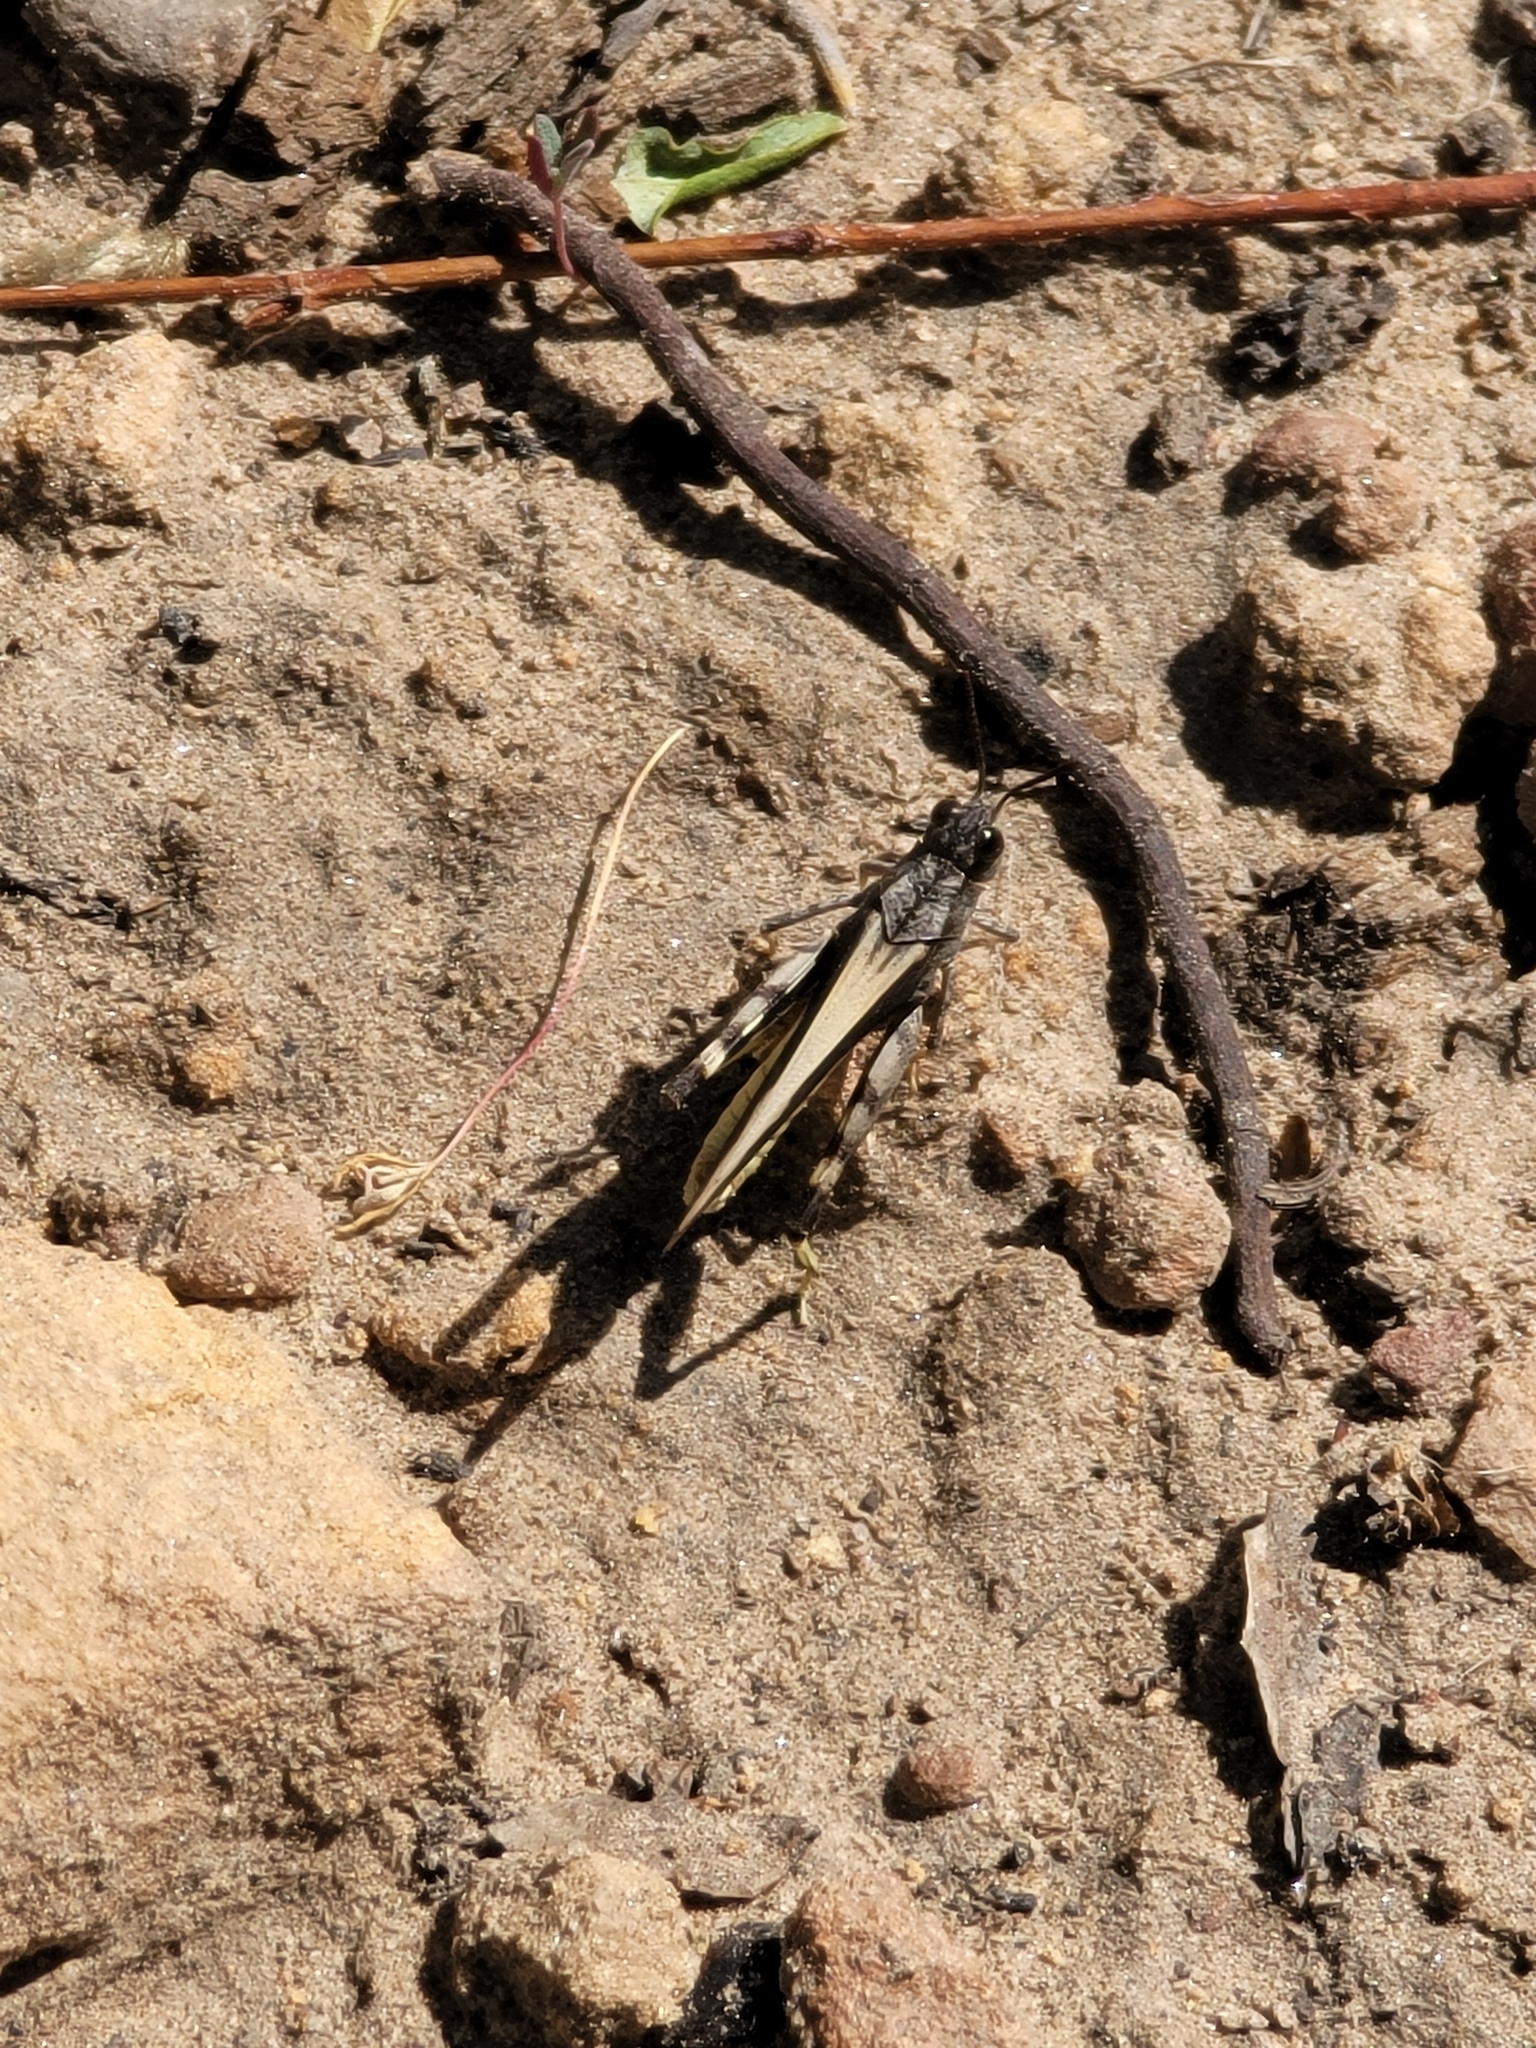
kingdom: Animalia
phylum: Arthropoda
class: Insecta
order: Orthoptera
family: Acrididae
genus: Camnula
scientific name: Camnula pellucida
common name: Clear-winged grasshopper
